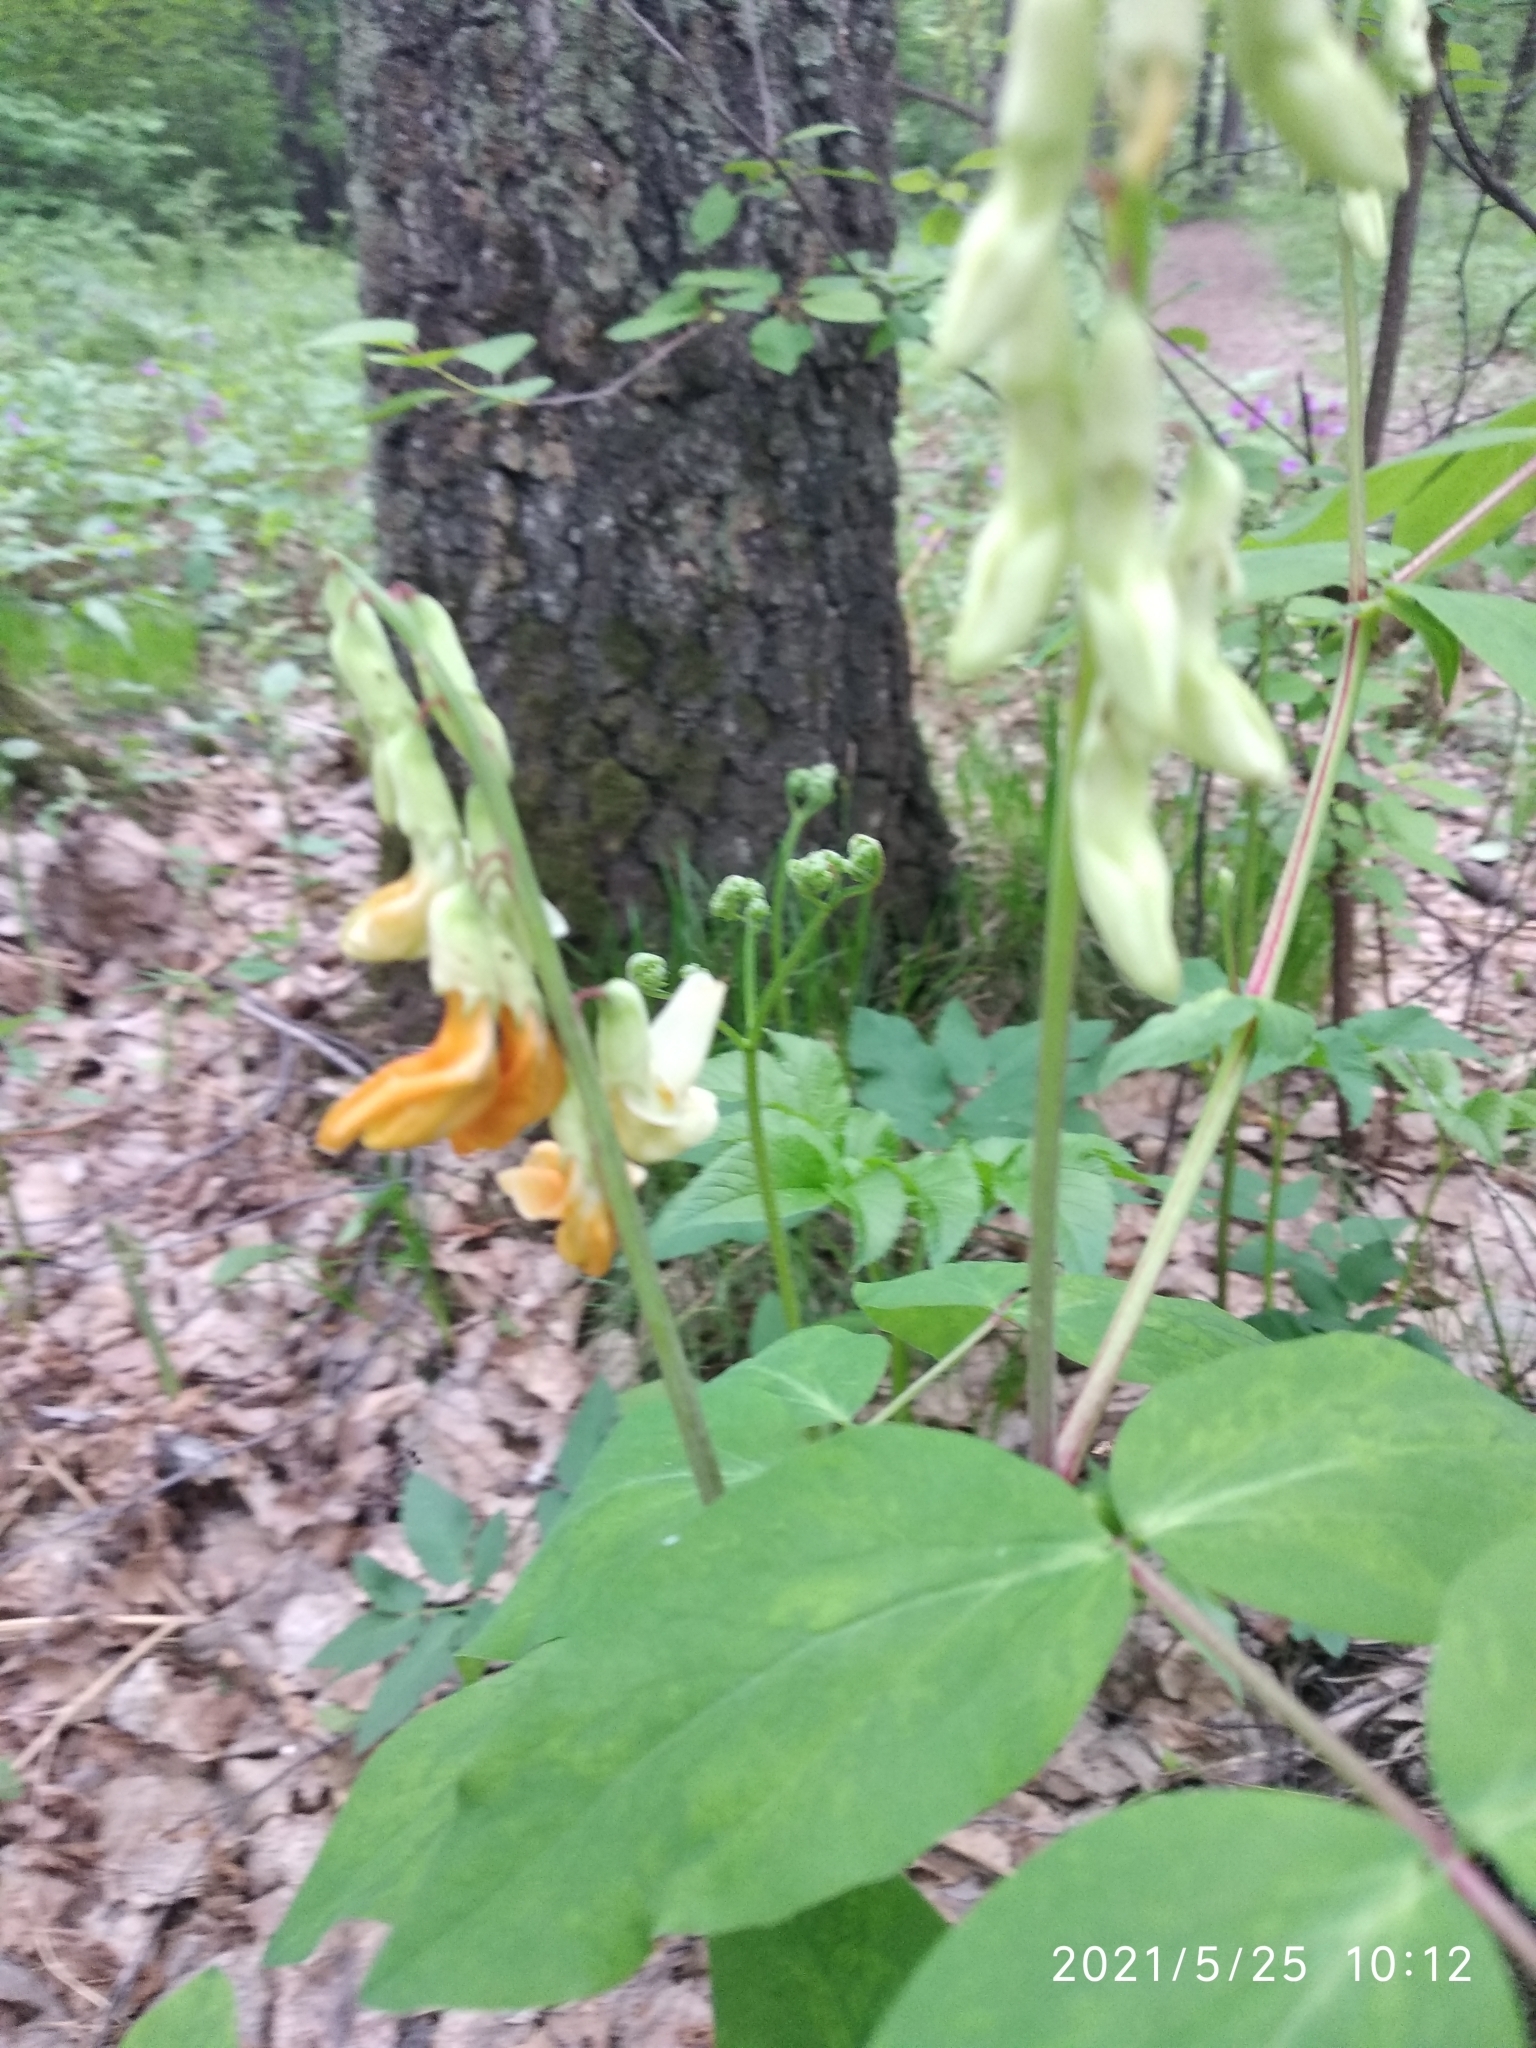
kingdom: Plantae
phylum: Tracheophyta
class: Magnoliopsida
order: Fabales
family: Fabaceae
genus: Lathyrus
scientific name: Lathyrus gmelinii
